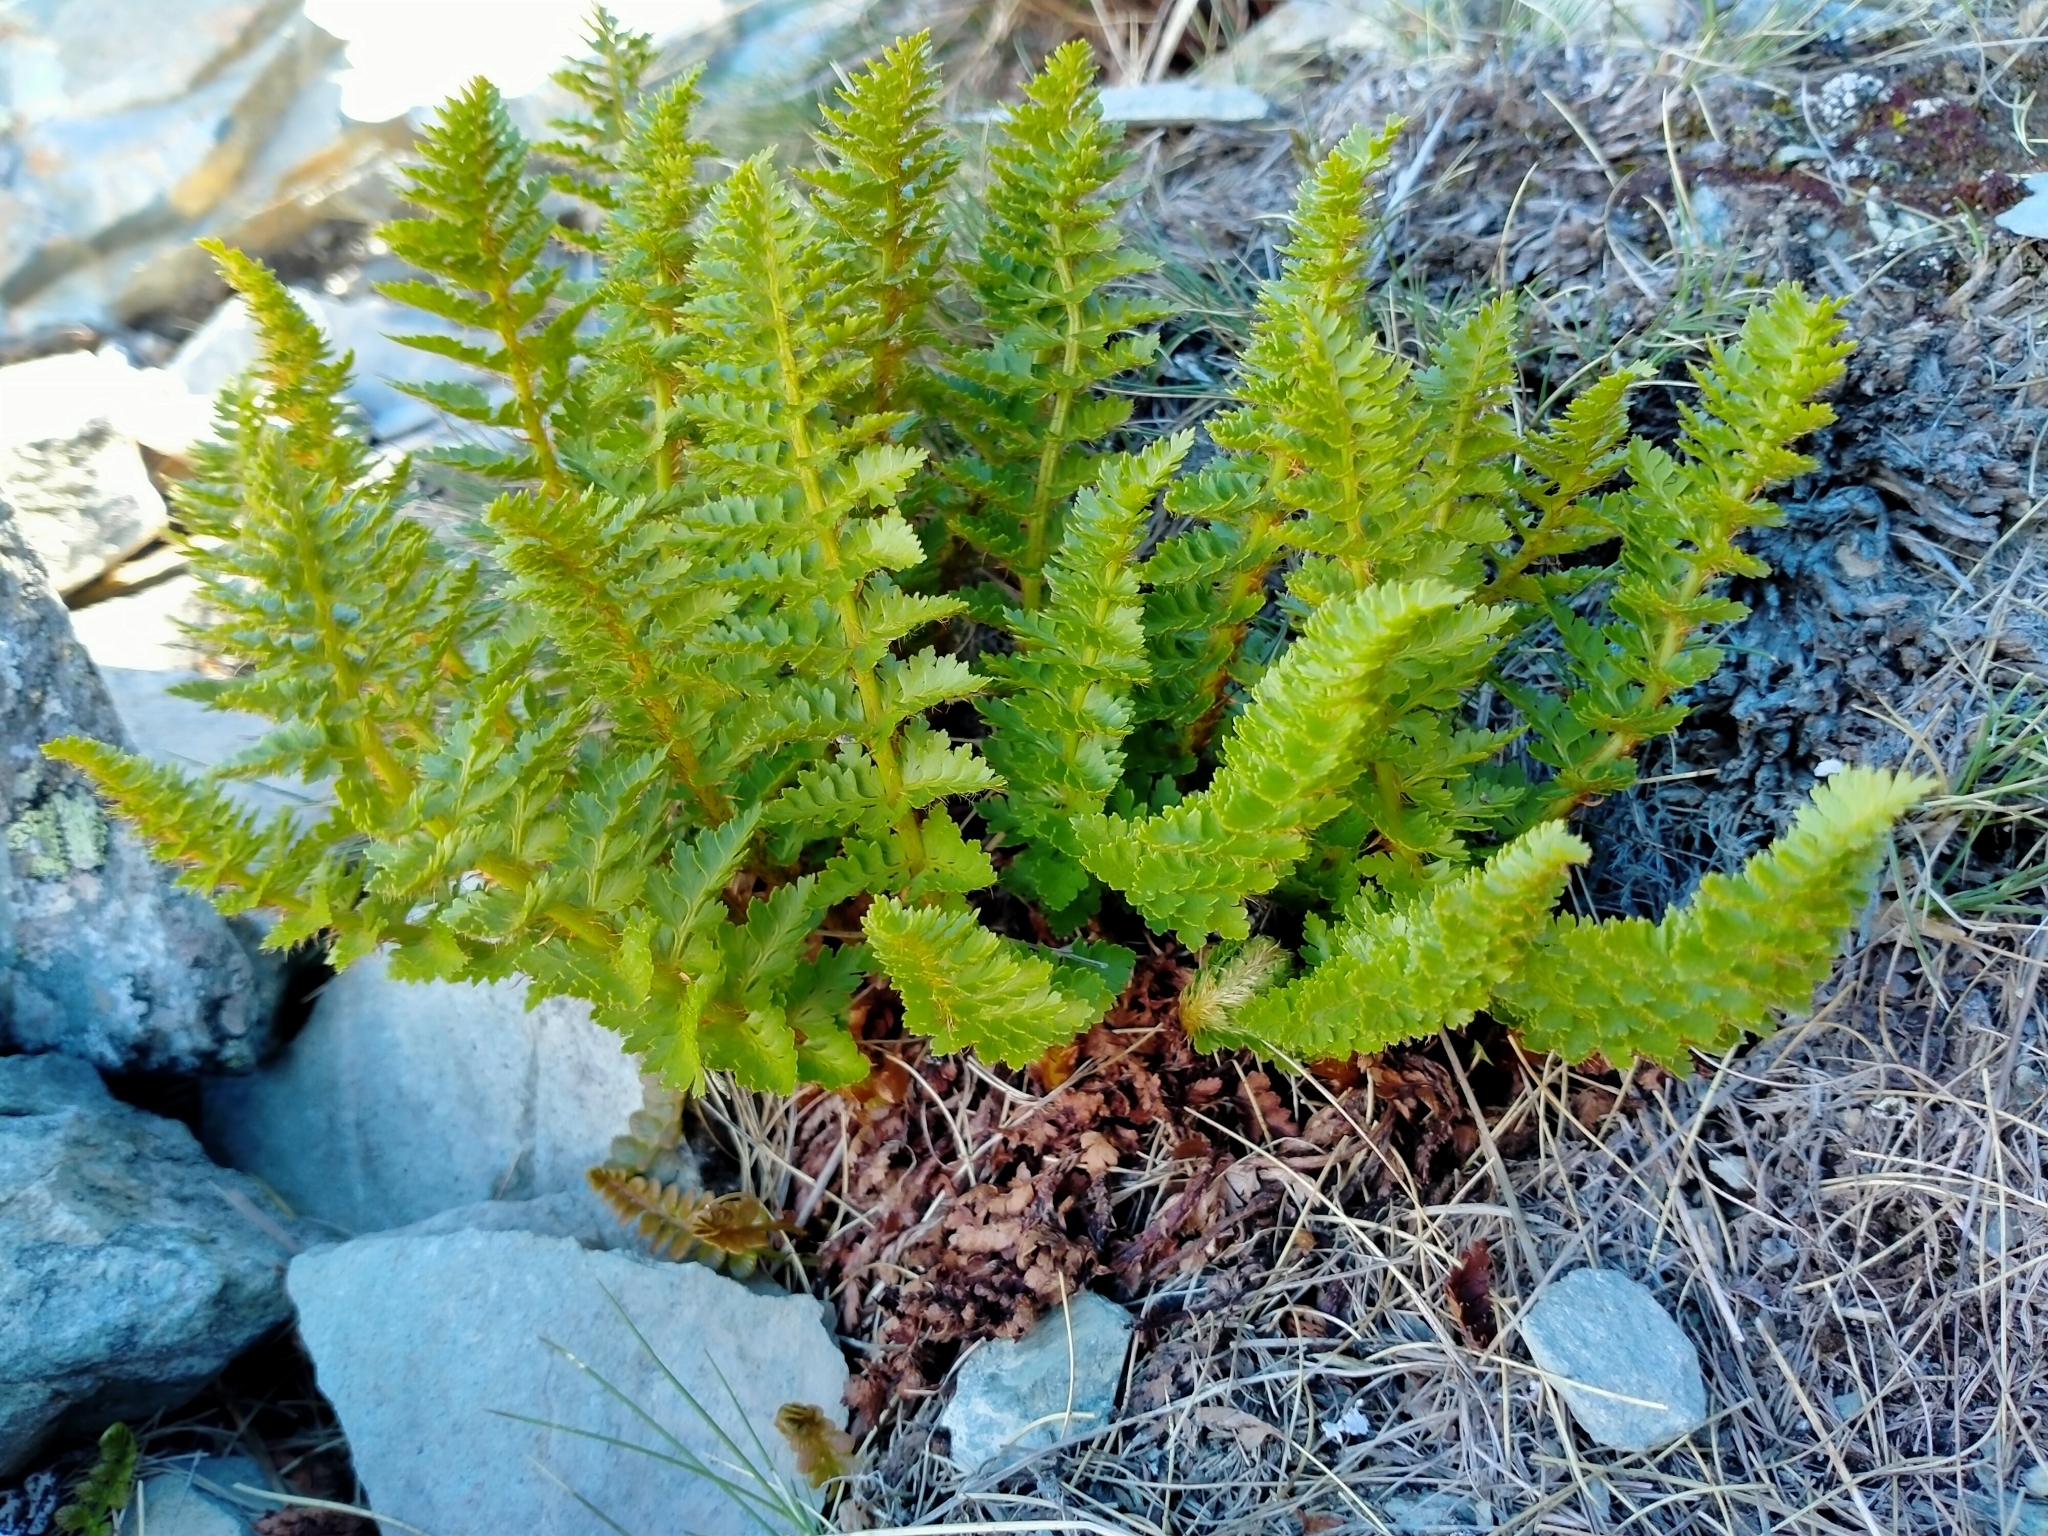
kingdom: Plantae
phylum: Tracheophyta
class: Polypodiopsida
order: Polypodiales
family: Dryopteridaceae
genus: Polystichum
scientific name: Polystichum cystostegia
